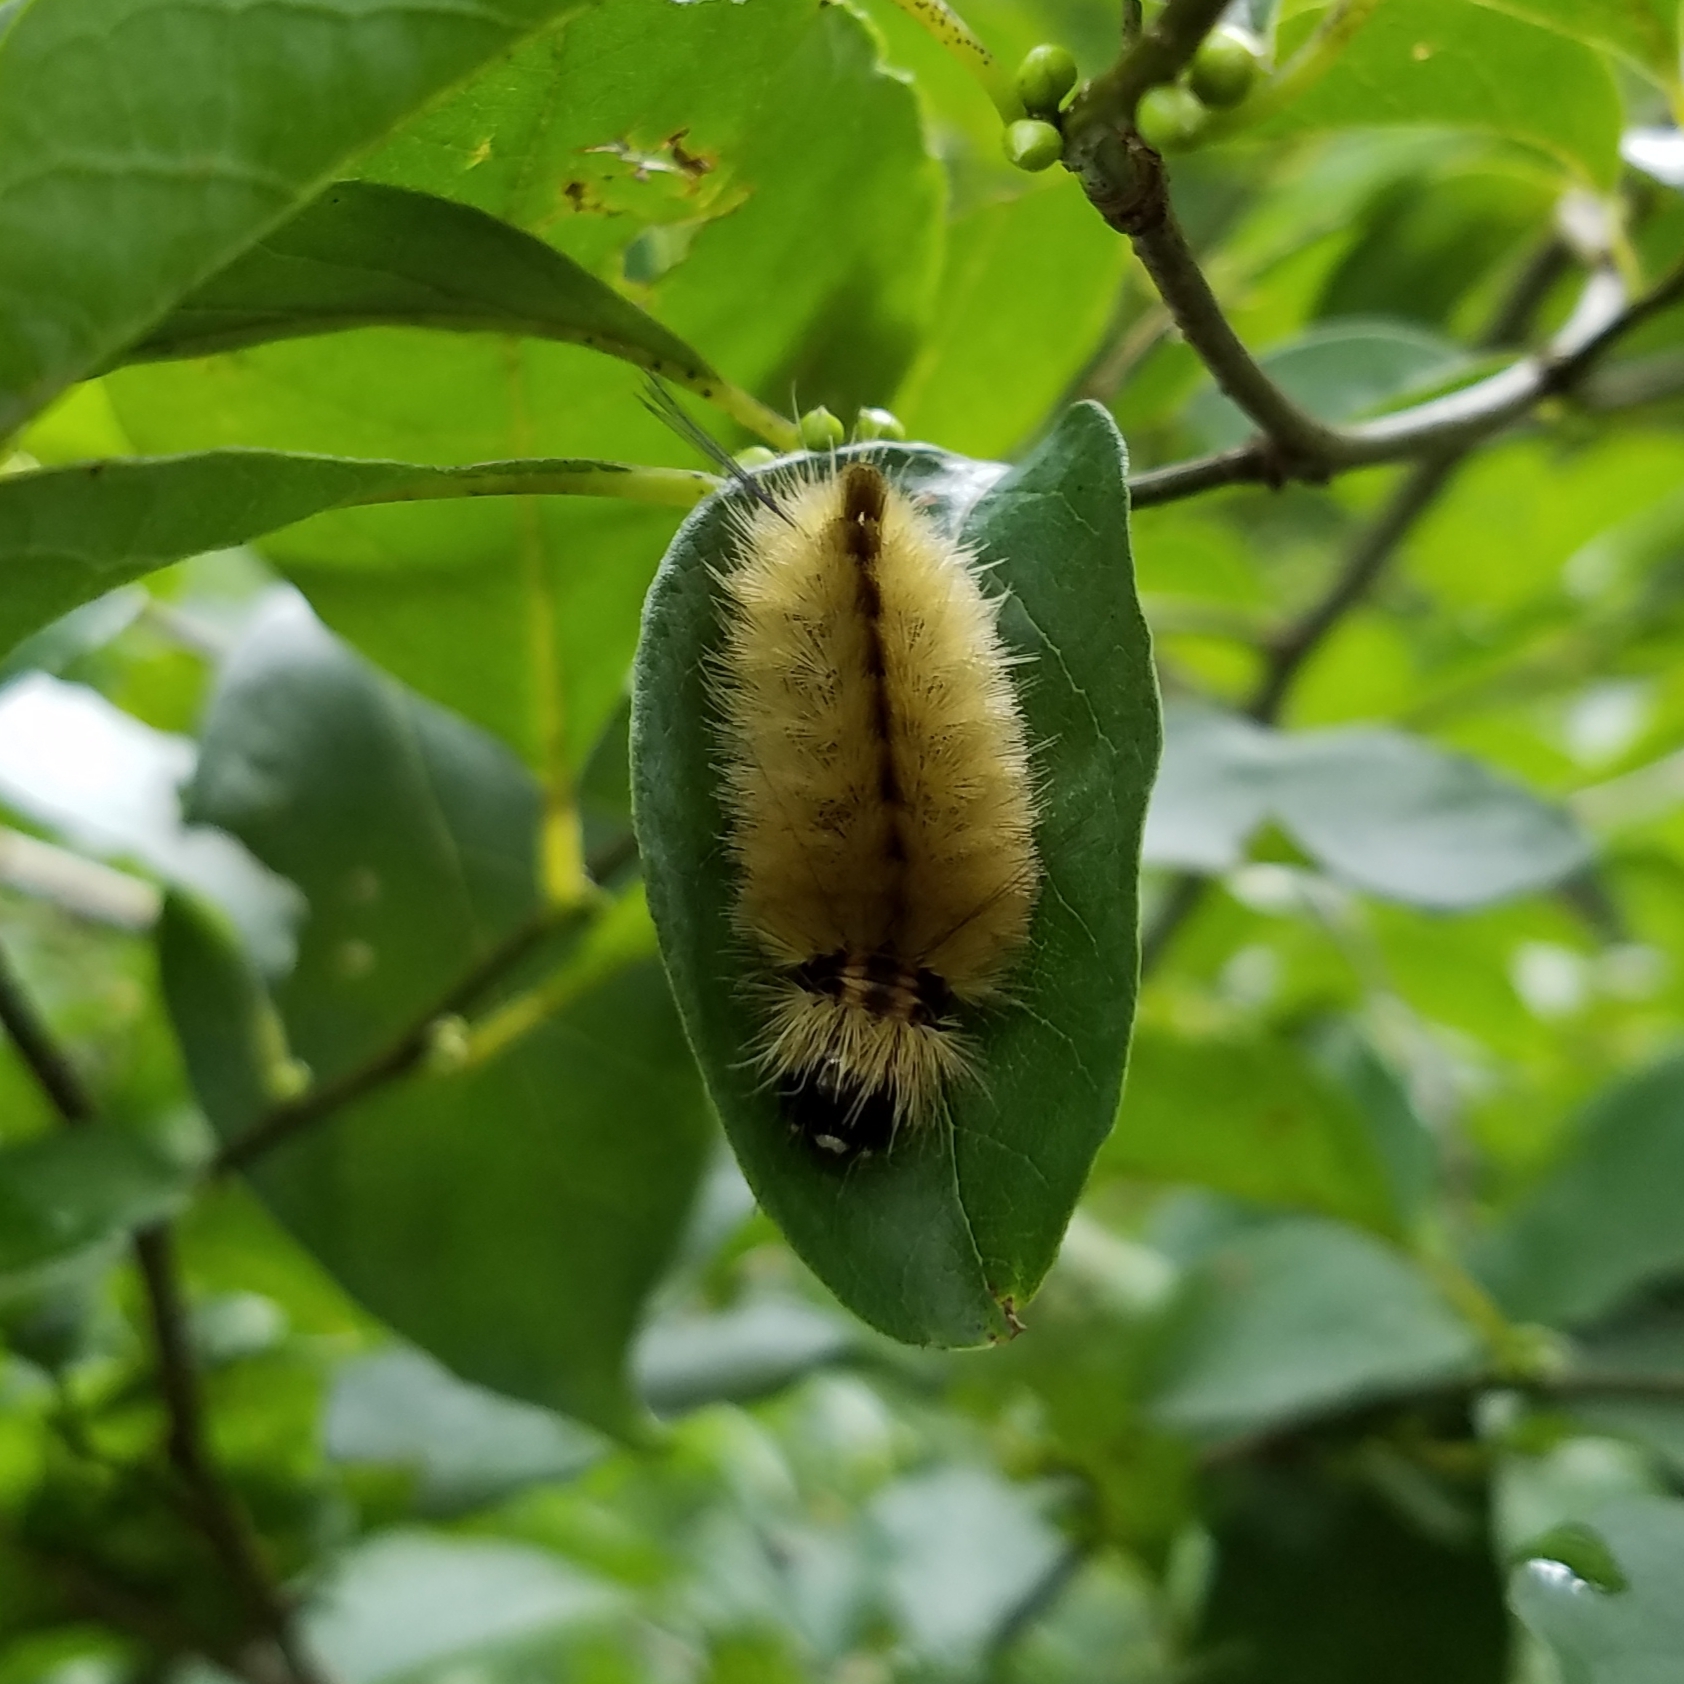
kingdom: Animalia
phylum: Arthropoda
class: Insecta
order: Lepidoptera
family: Erebidae
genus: Halysidota
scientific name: Halysidota tessellaris
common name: Banded tussock moth
